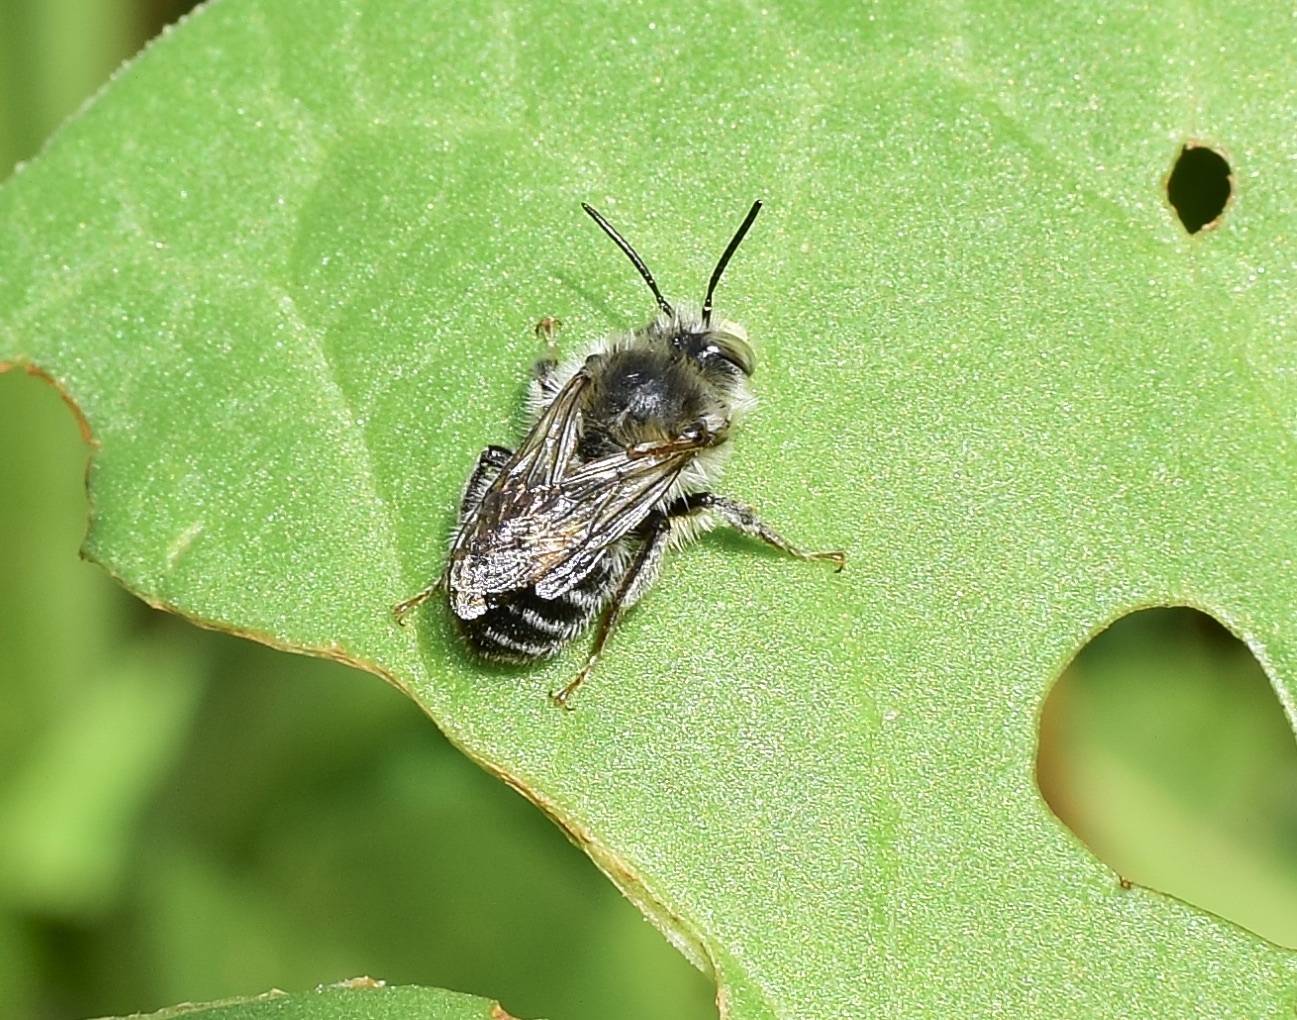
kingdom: Animalia
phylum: Arthropoda
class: Insecta
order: Hymenoptera
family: Apidae
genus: Anthophora
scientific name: Anthophora terminalis
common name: Orange-tipped wood-digger bee
